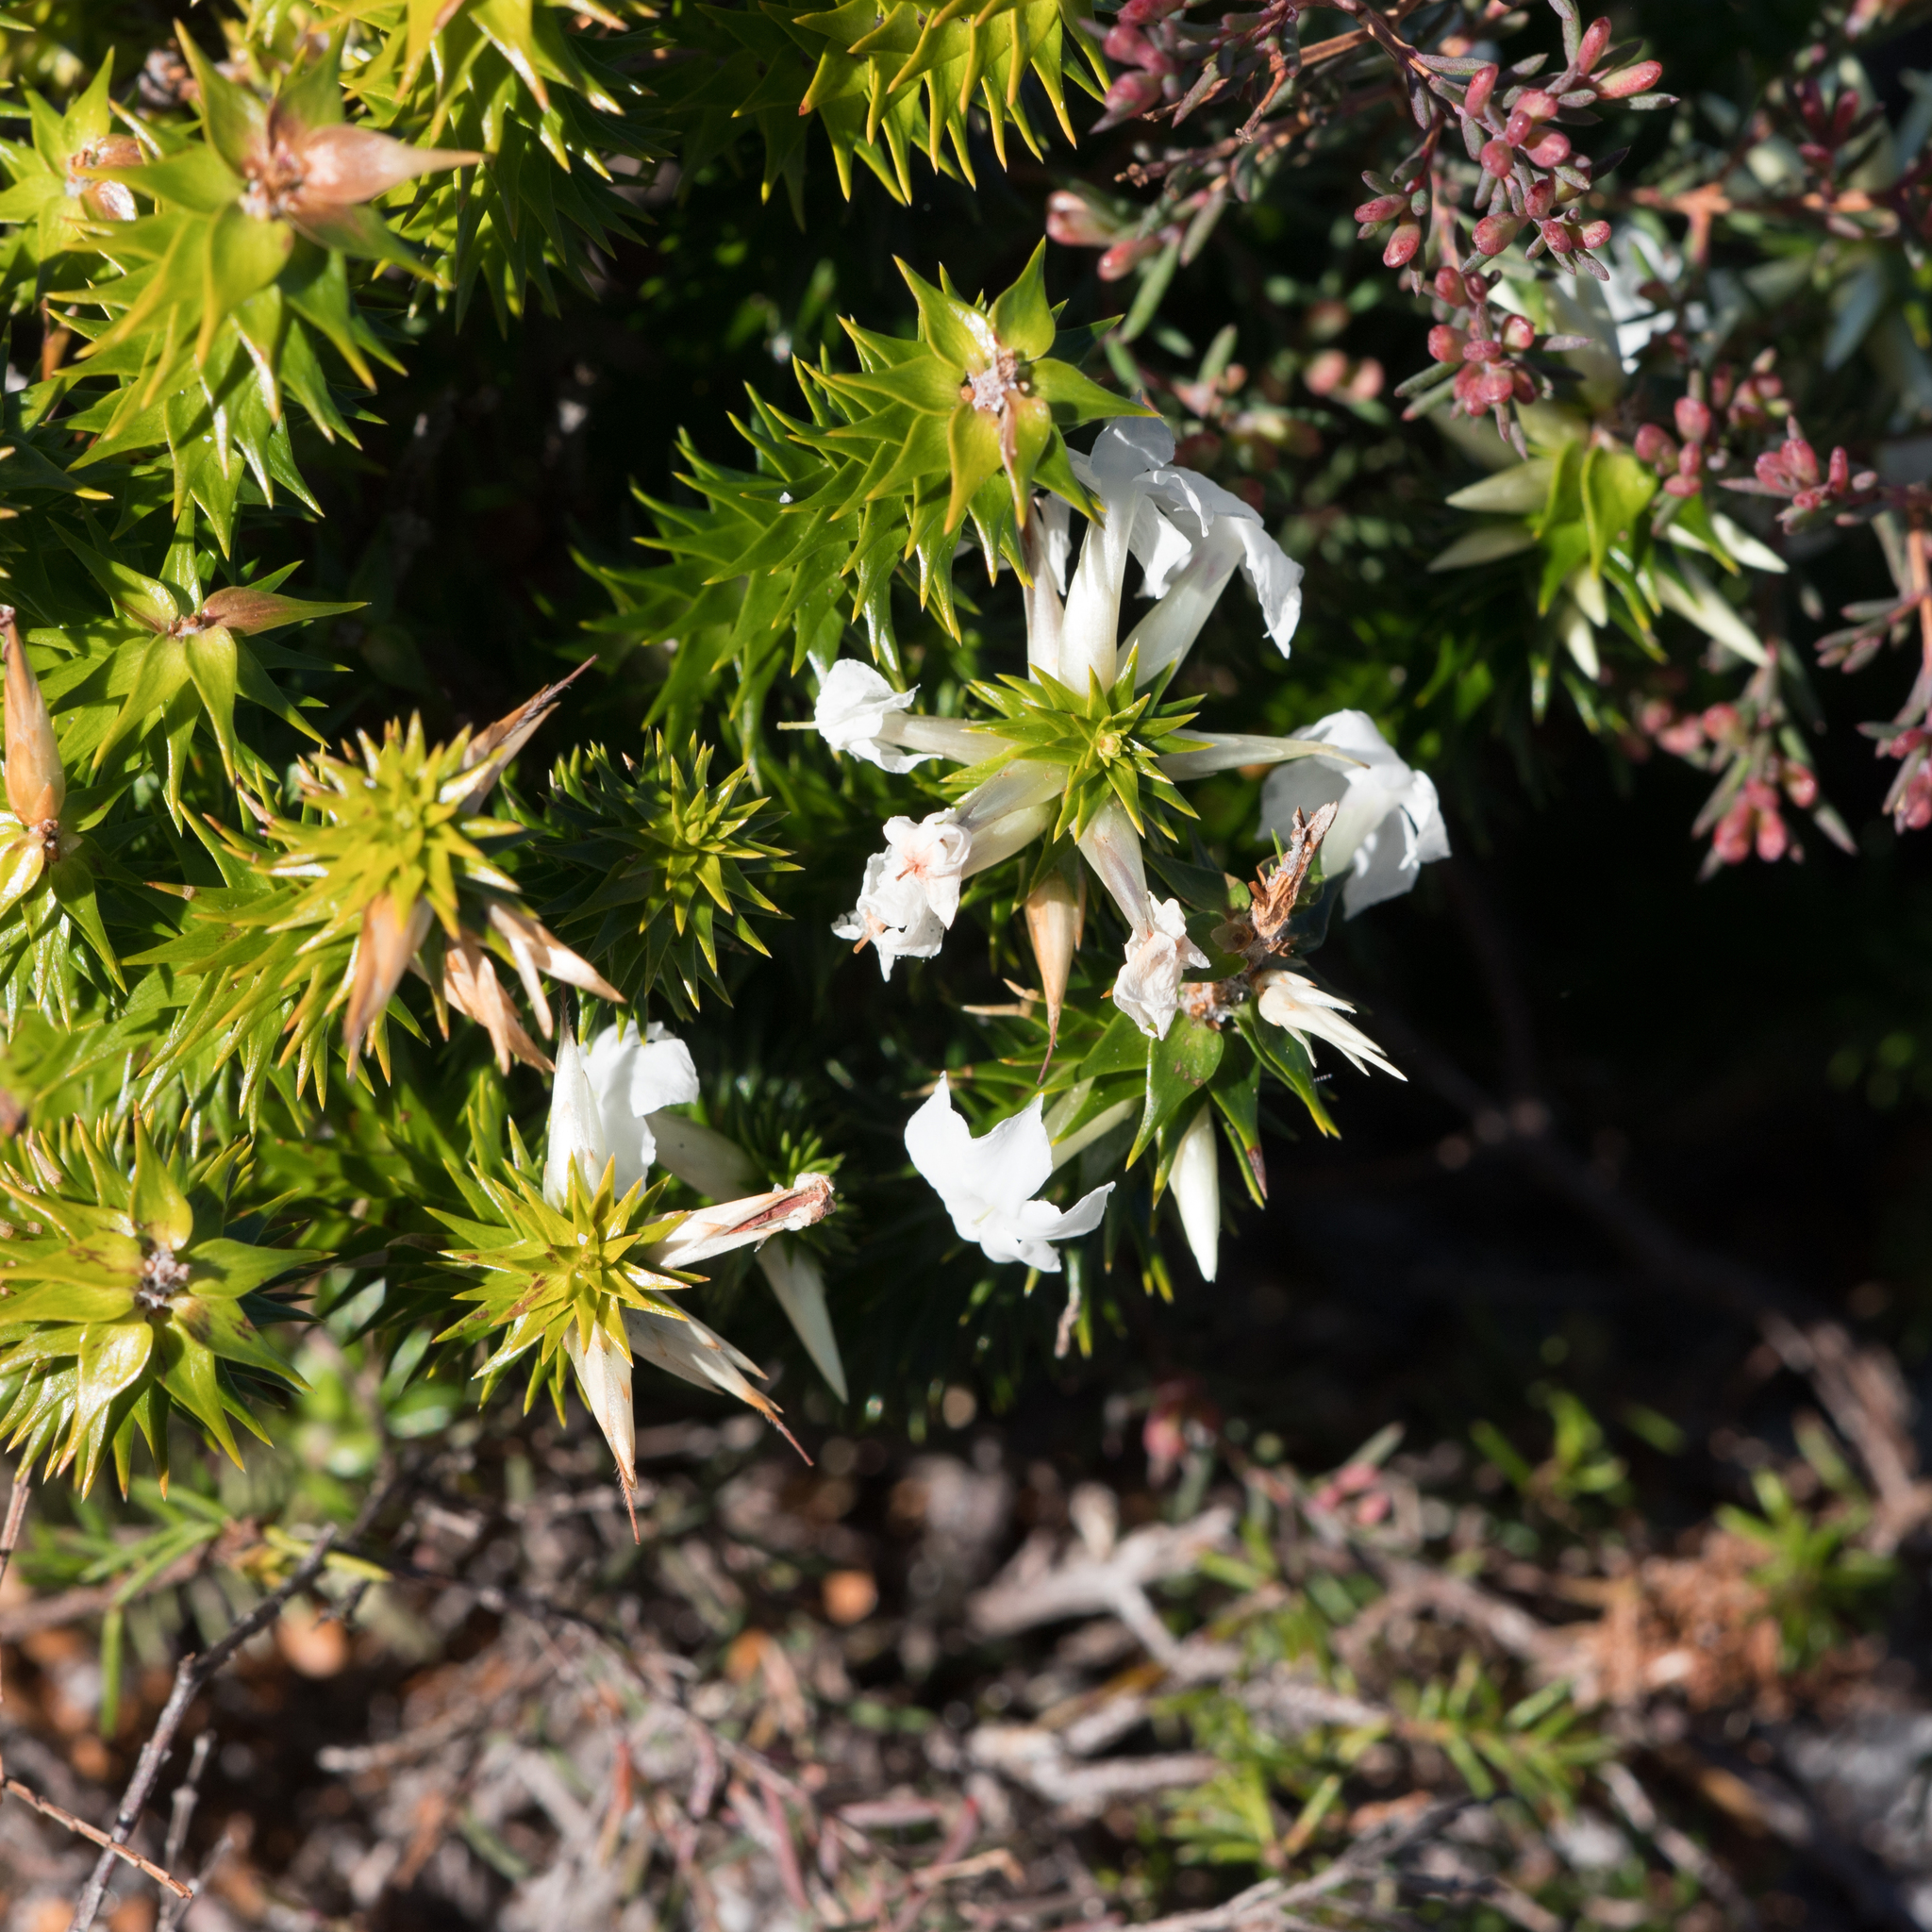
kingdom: Plantae
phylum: Tracheophyta
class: Magnoliopsida
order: Ericales
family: Ericaceae
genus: Woollsia
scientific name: Woollsia pungens
